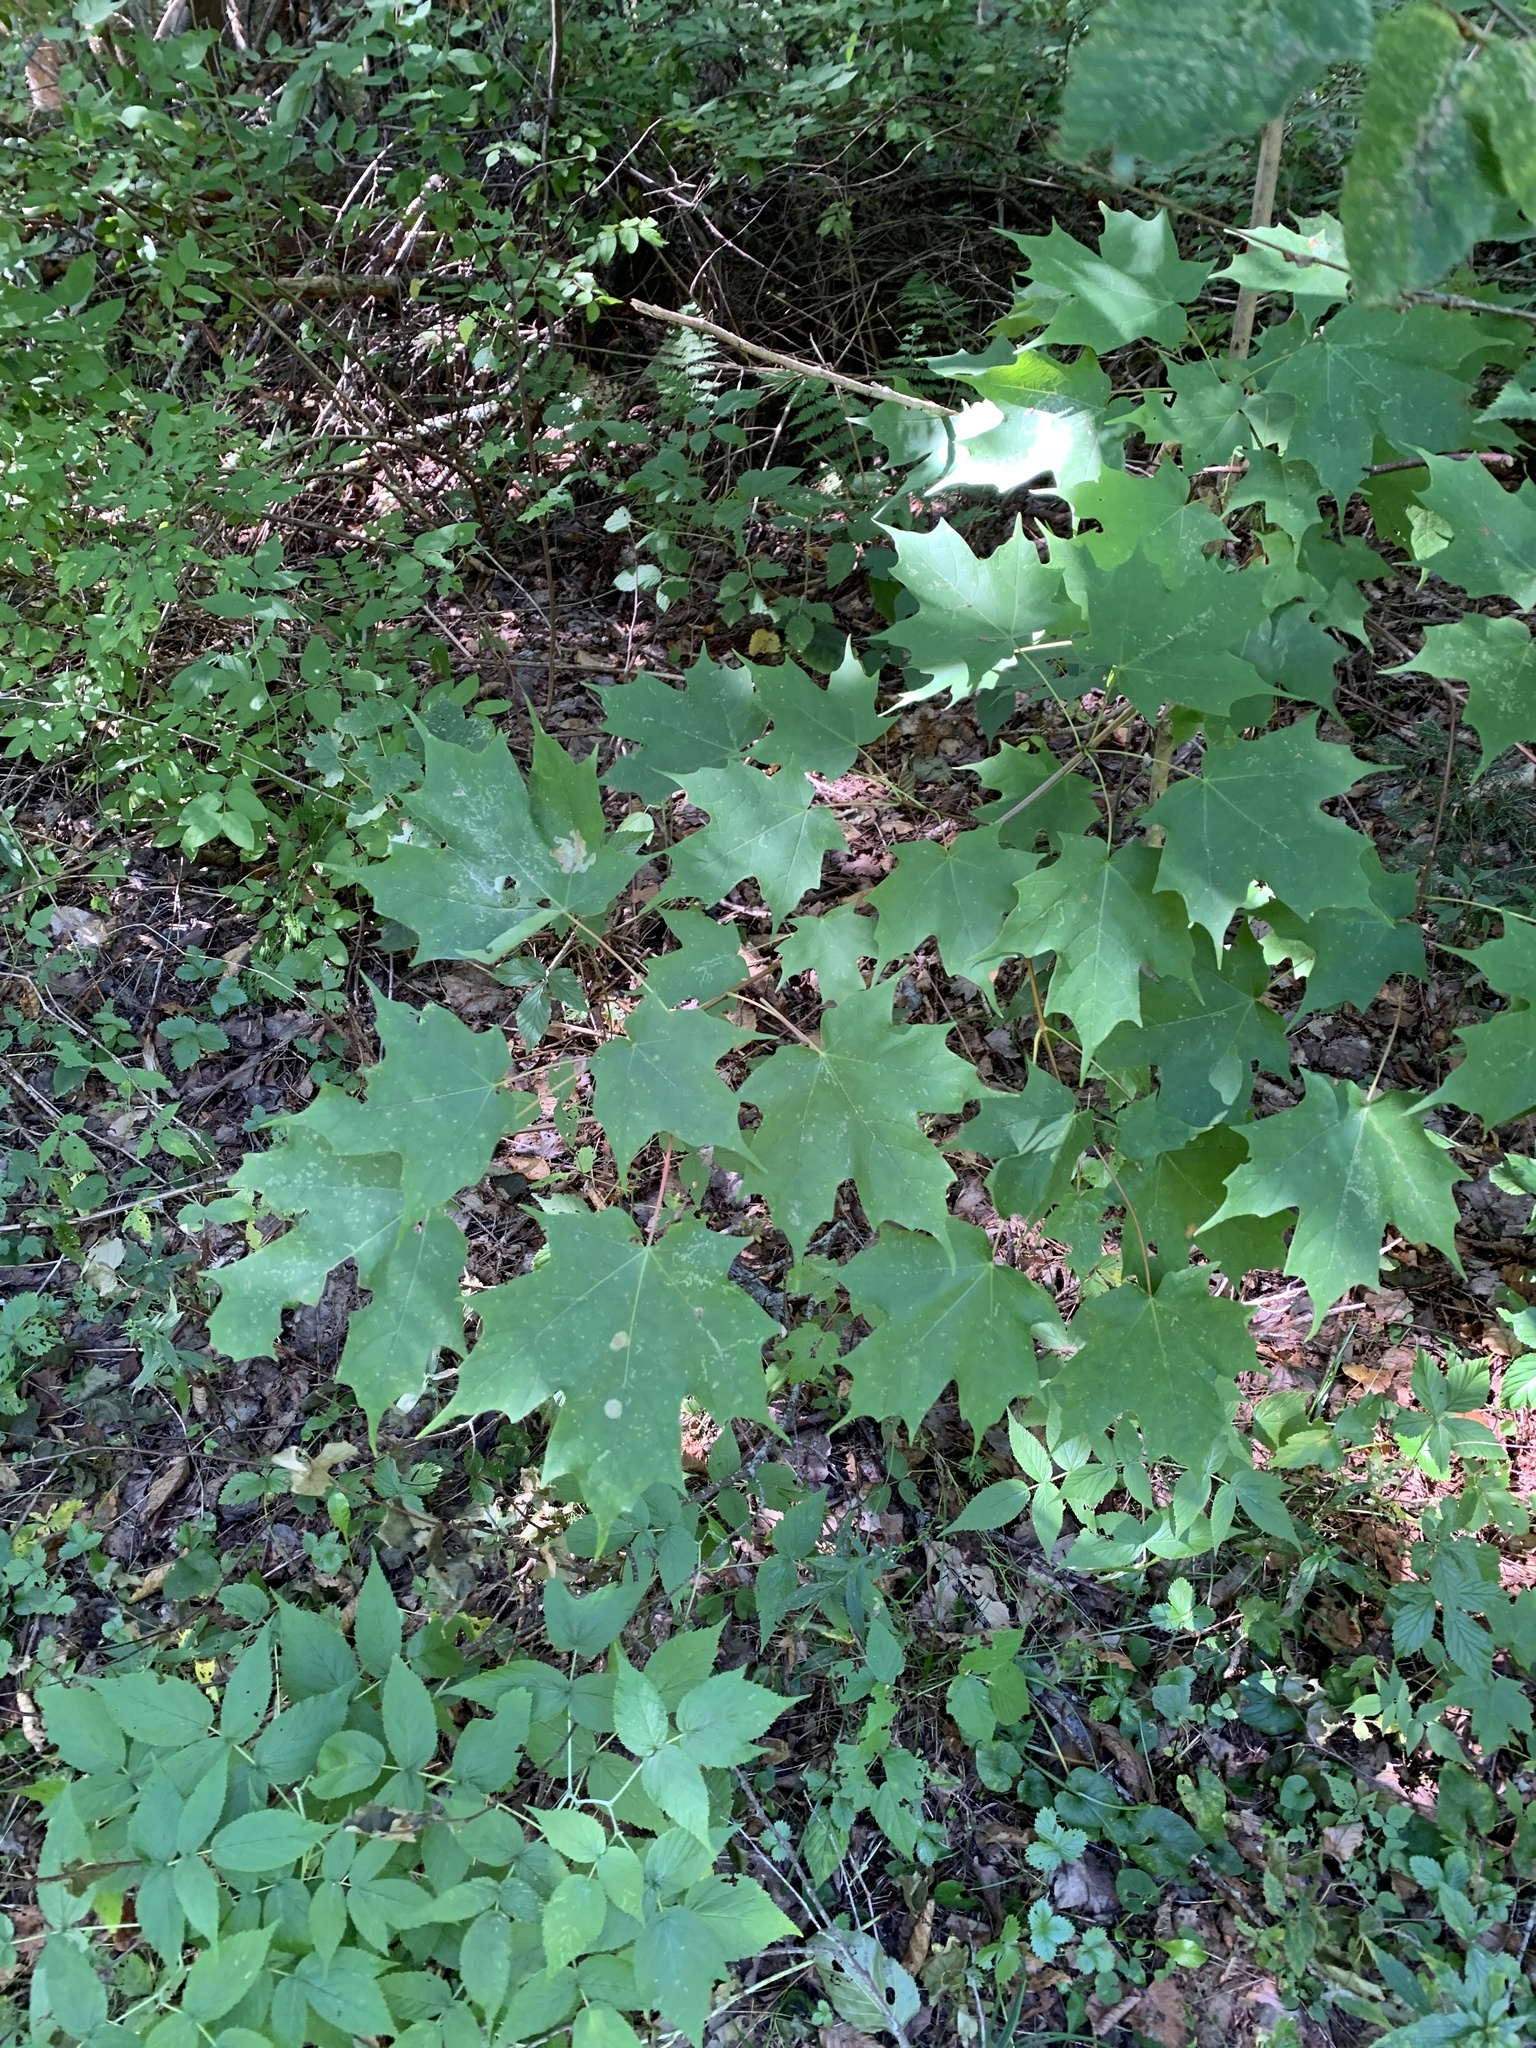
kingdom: Plantae
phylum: Tracheophyta
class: Magnoliopsida
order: Sapindales
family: Sapindaceae
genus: Acer
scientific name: Acer saccharum
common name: Sugar maple
